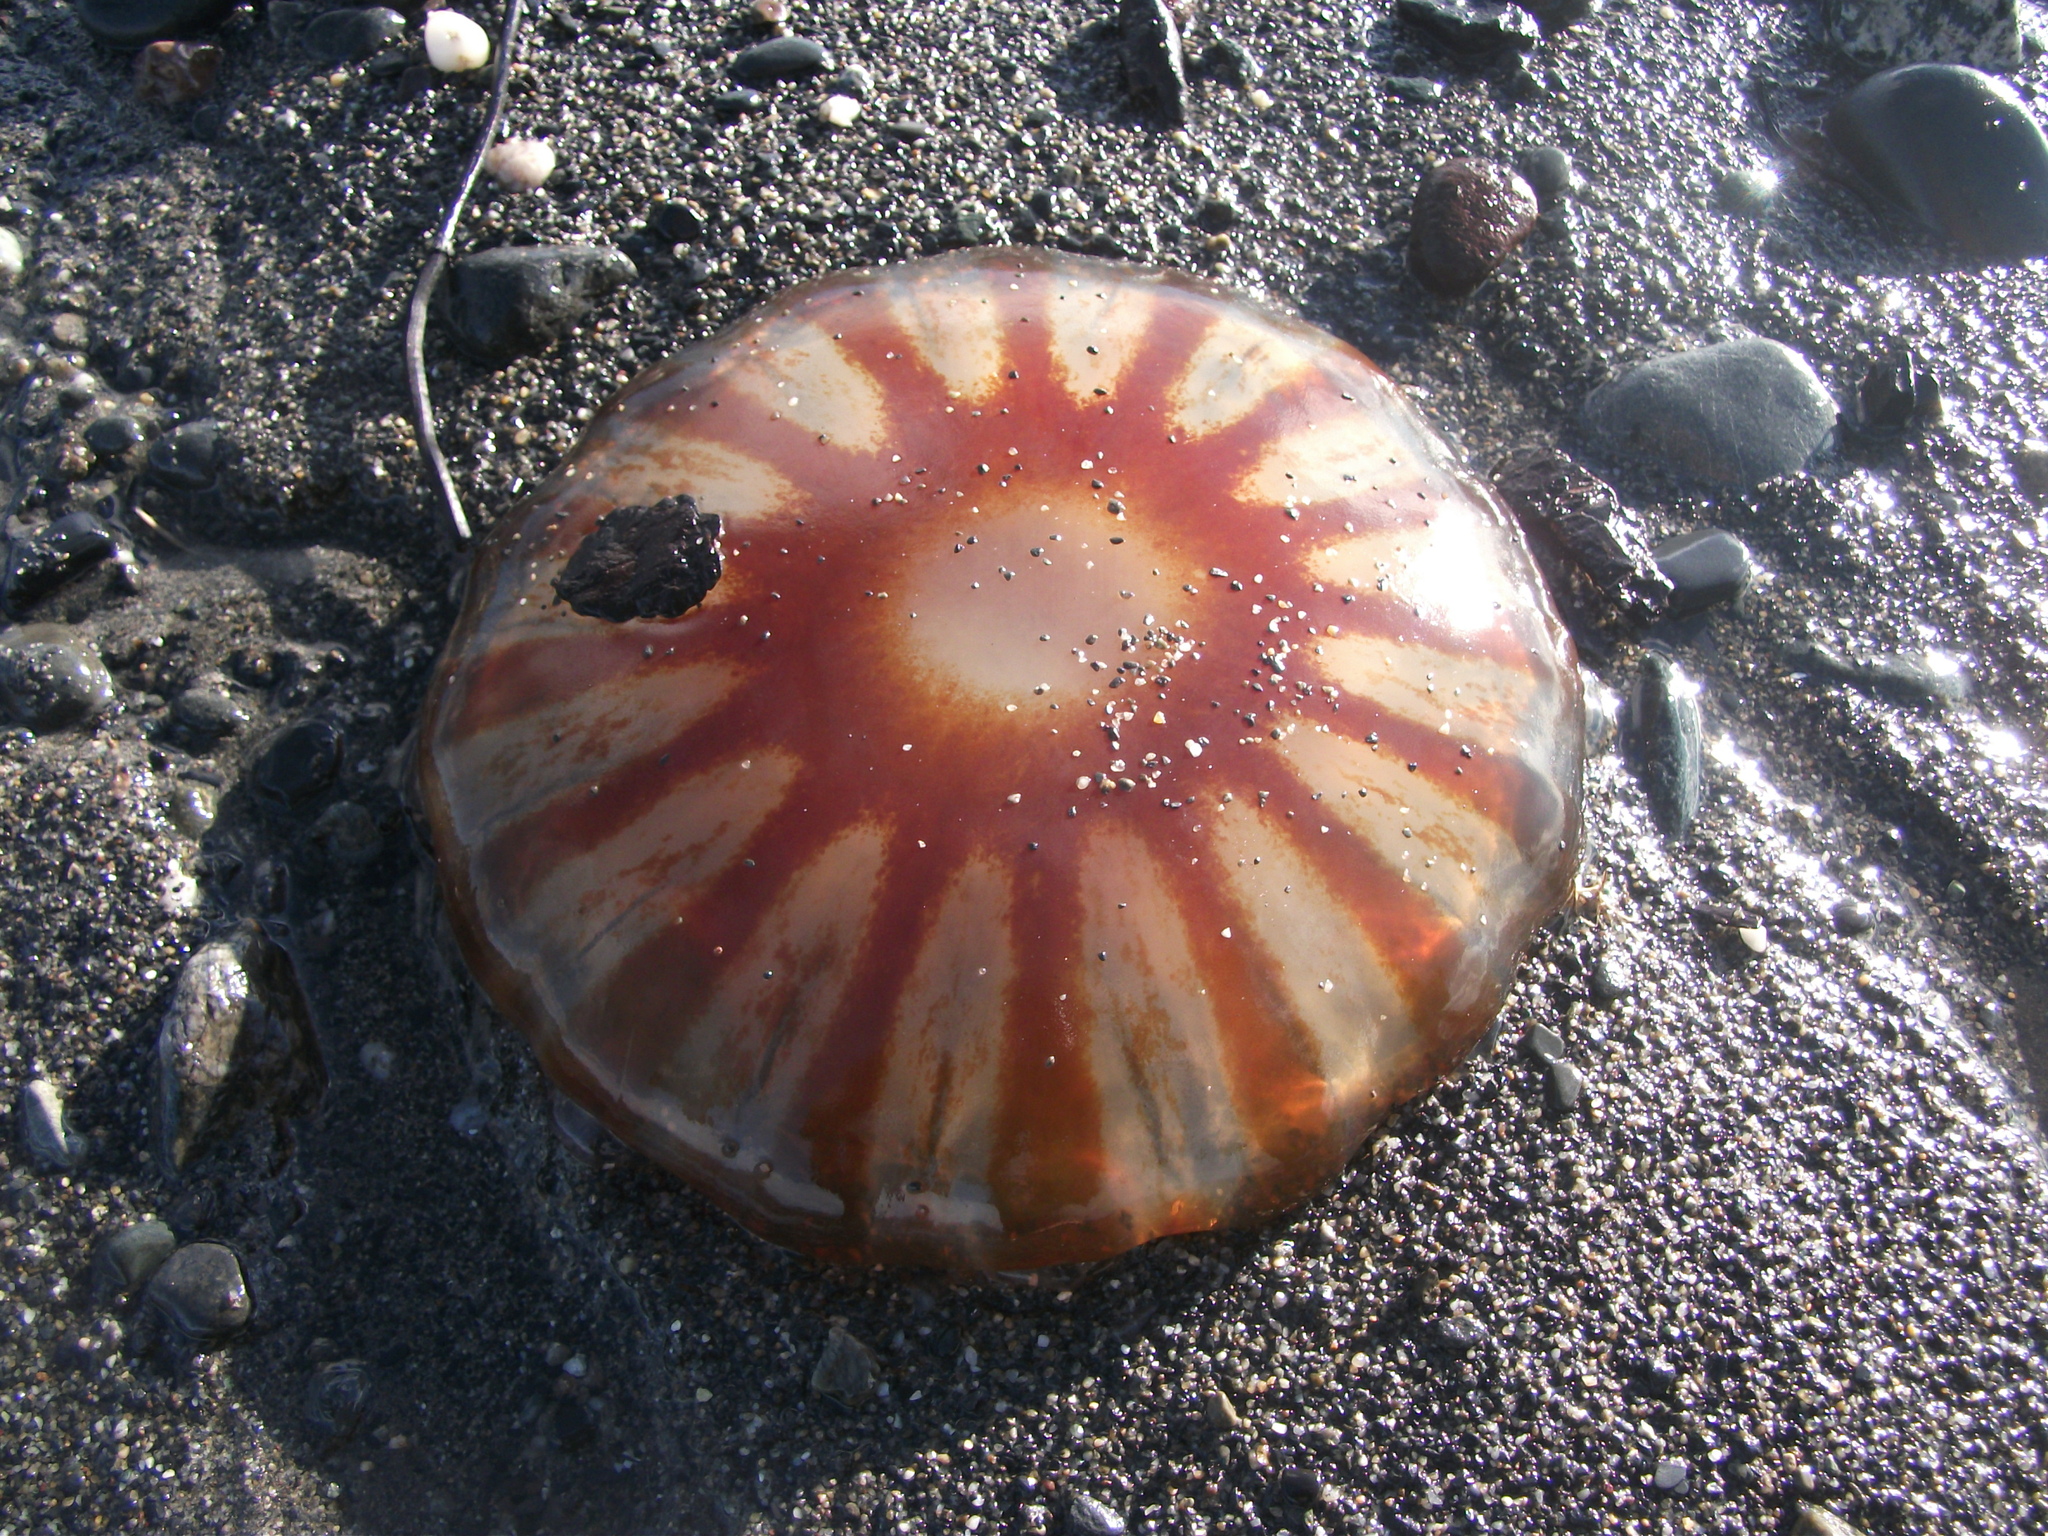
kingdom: Animalia
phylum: Cnidaria
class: Scyphozoa
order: Semaeostomeae
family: Pelagiidae
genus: Chrysaora
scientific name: Chrysaora melanaster
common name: Northern sea nettle
